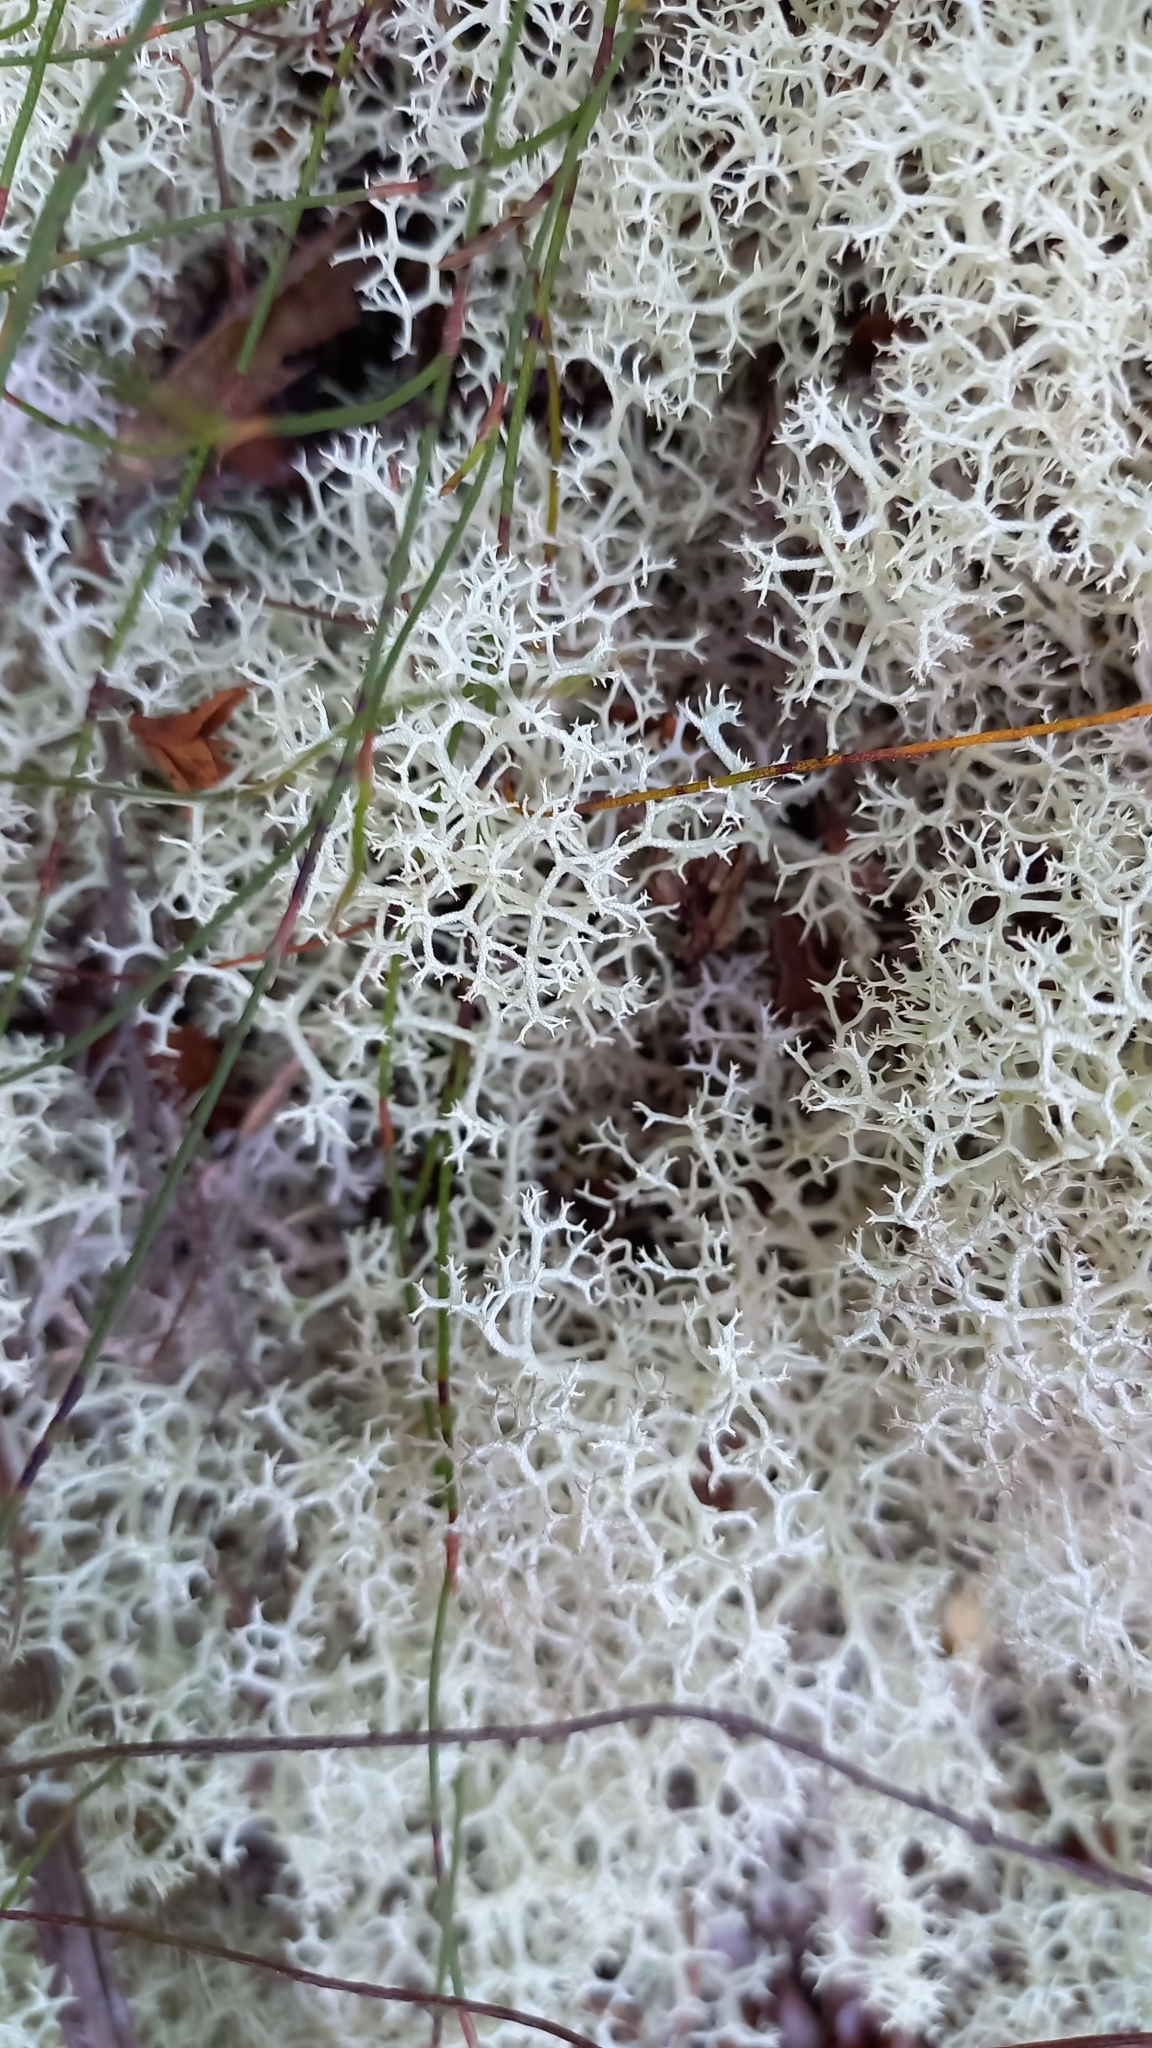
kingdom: Fungi
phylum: Ascomycota
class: Lecanoromycetes
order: Lecanorales
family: Cladoniaceae
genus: Cladonia
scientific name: Cladonia confusa
